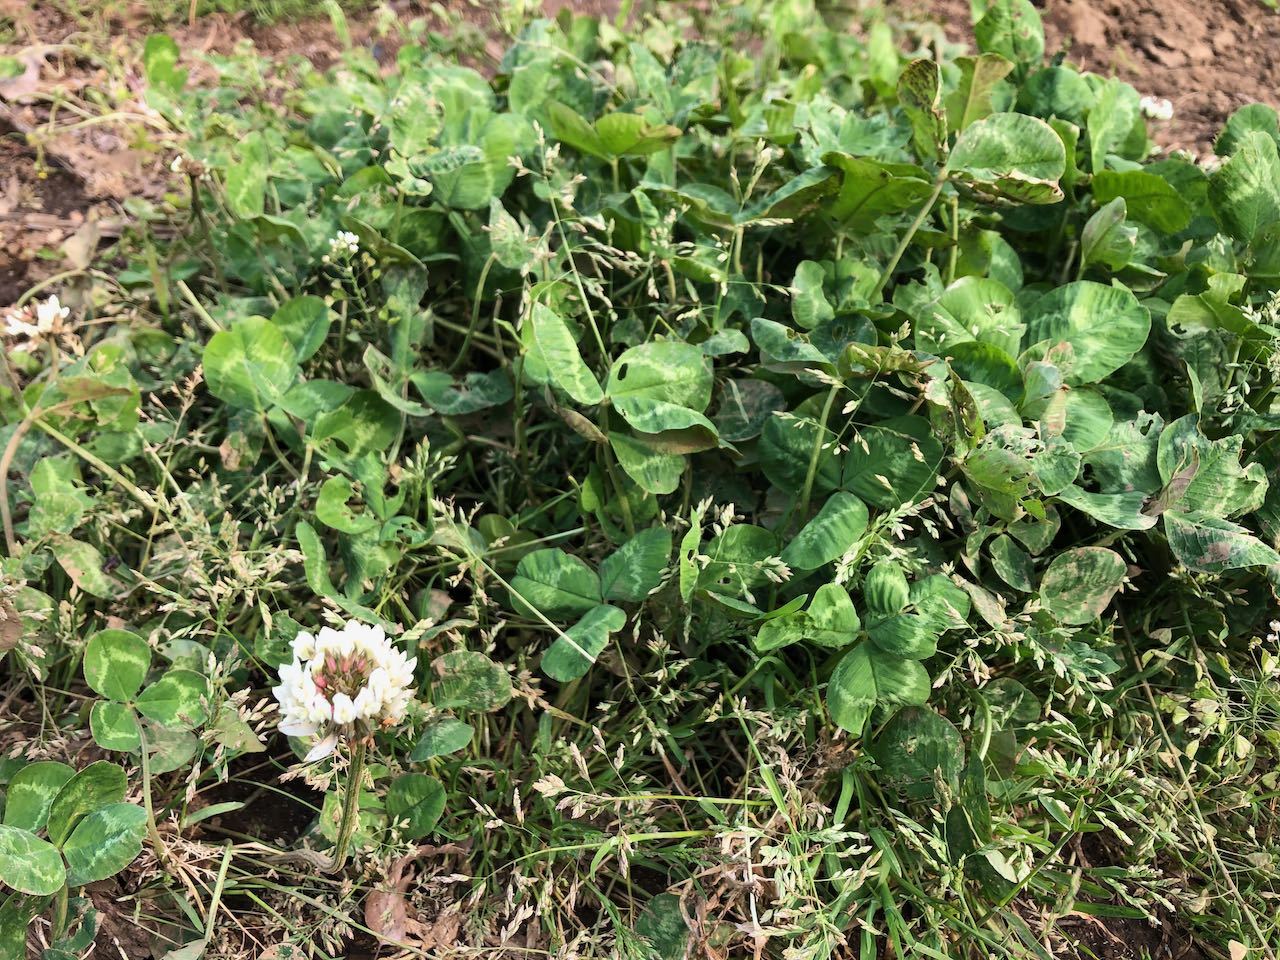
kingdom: Plantae
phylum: Tracheophyta
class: Magnoliopsida
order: Fabales
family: Fabaceae
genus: Trifolium
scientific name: Trifolium repens
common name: White clover
